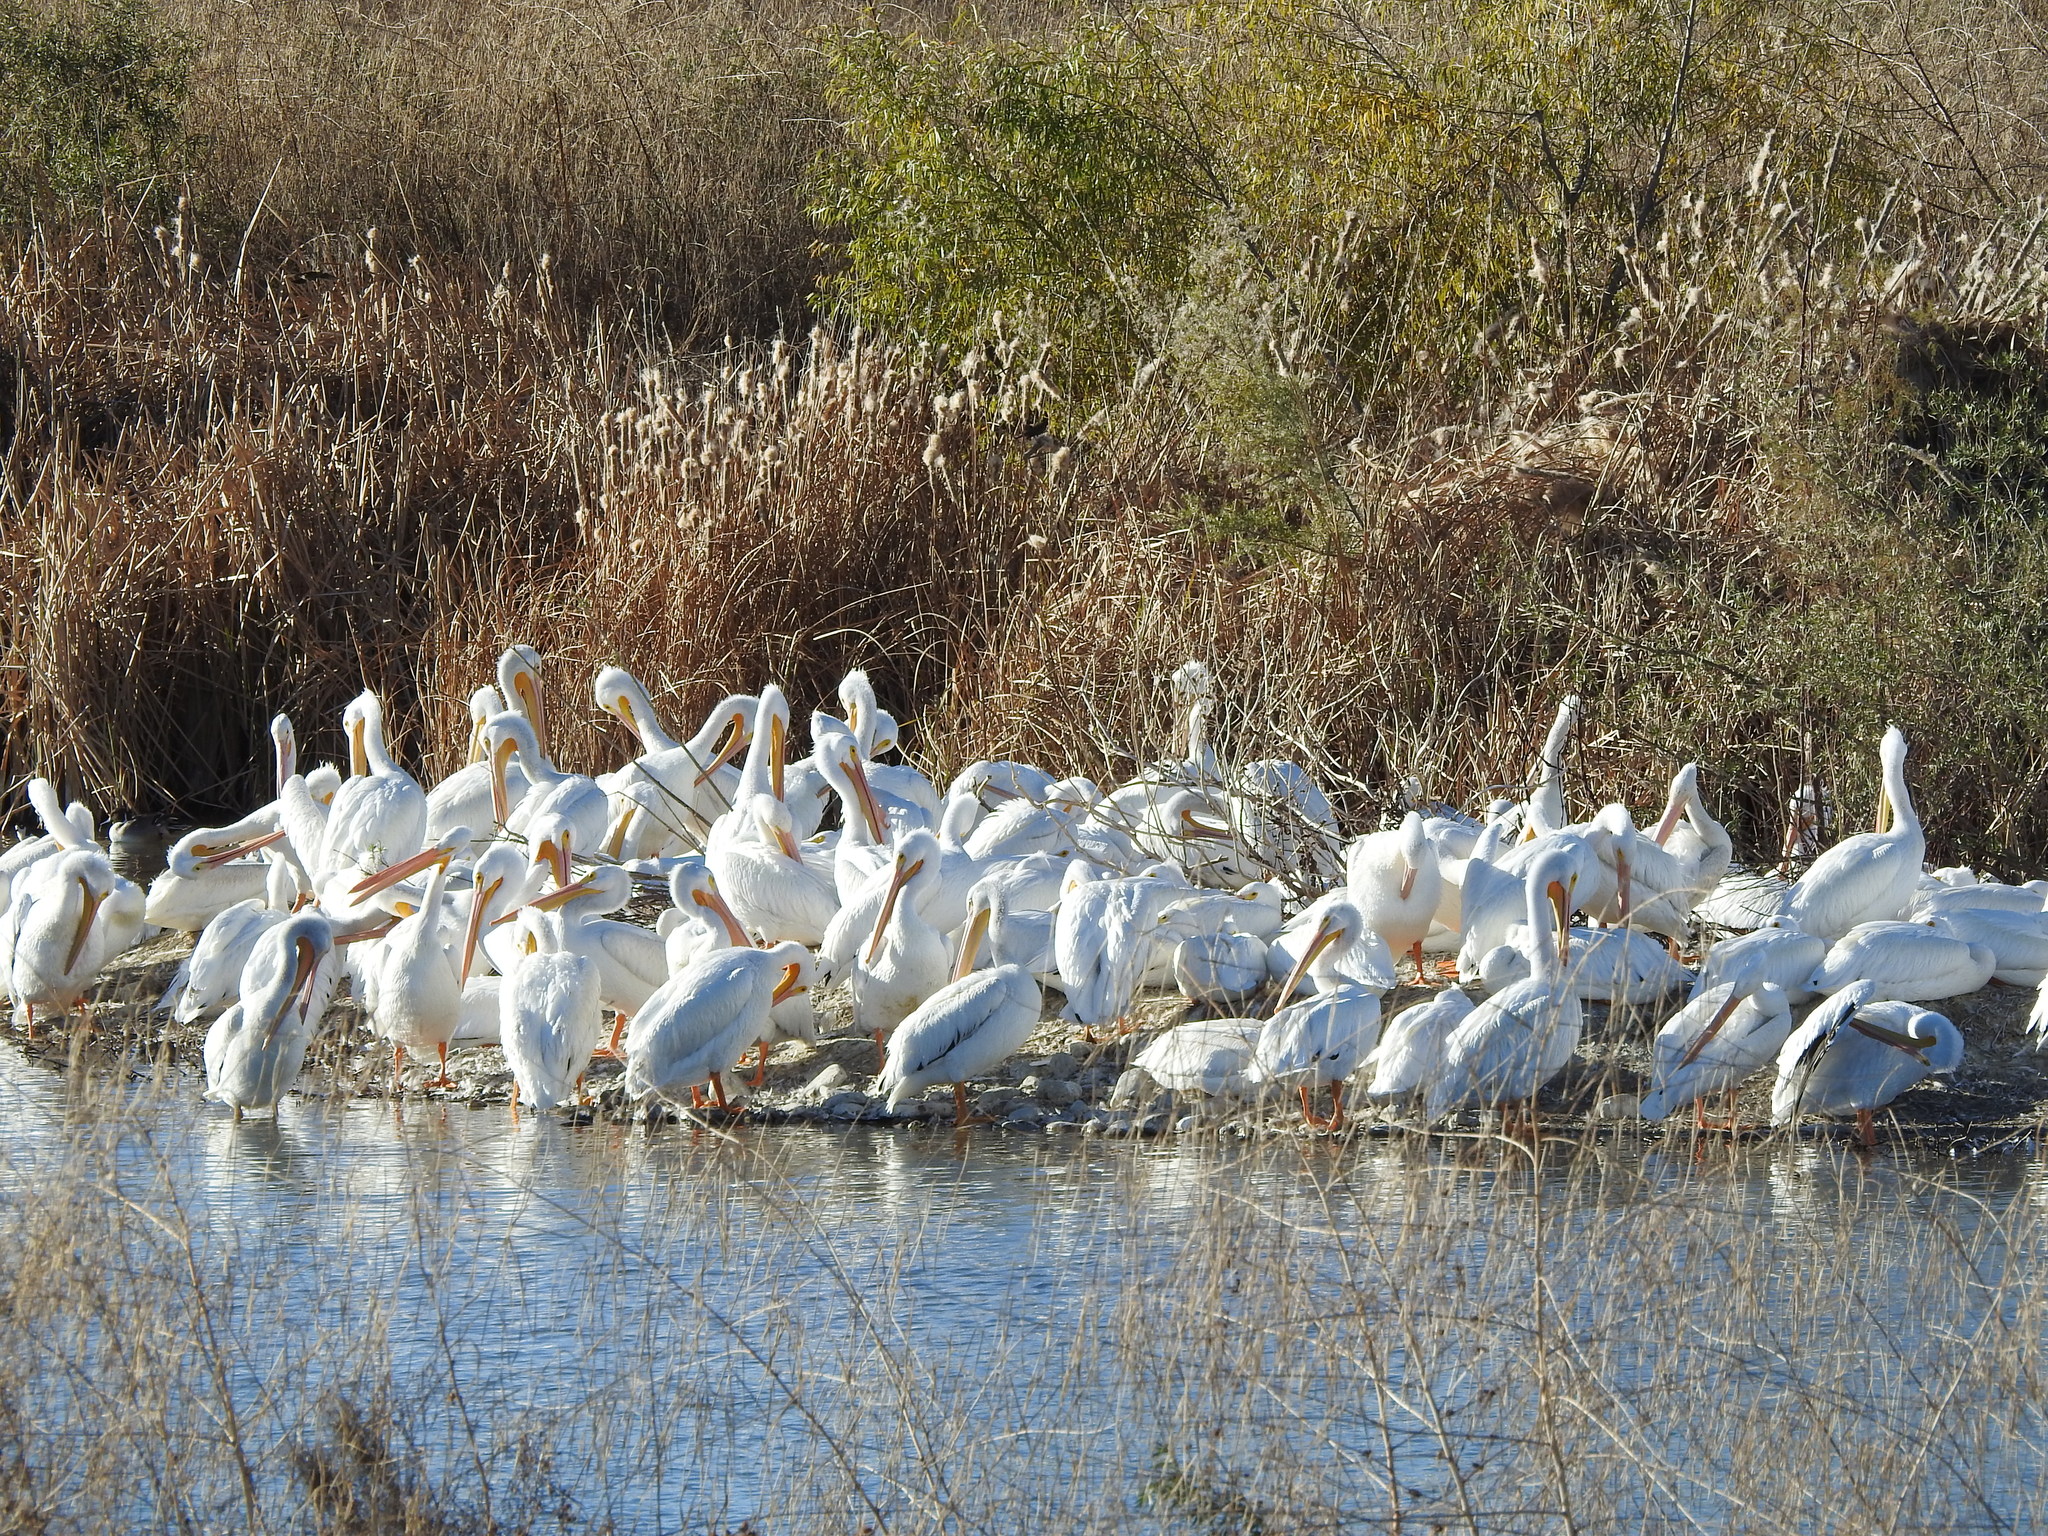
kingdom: Animalia
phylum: Chordata
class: Aves
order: Pelecaniformes
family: Pelecanidae
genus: Pelecanus
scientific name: Pelecanus erythrorhynchos
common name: American white pelican
